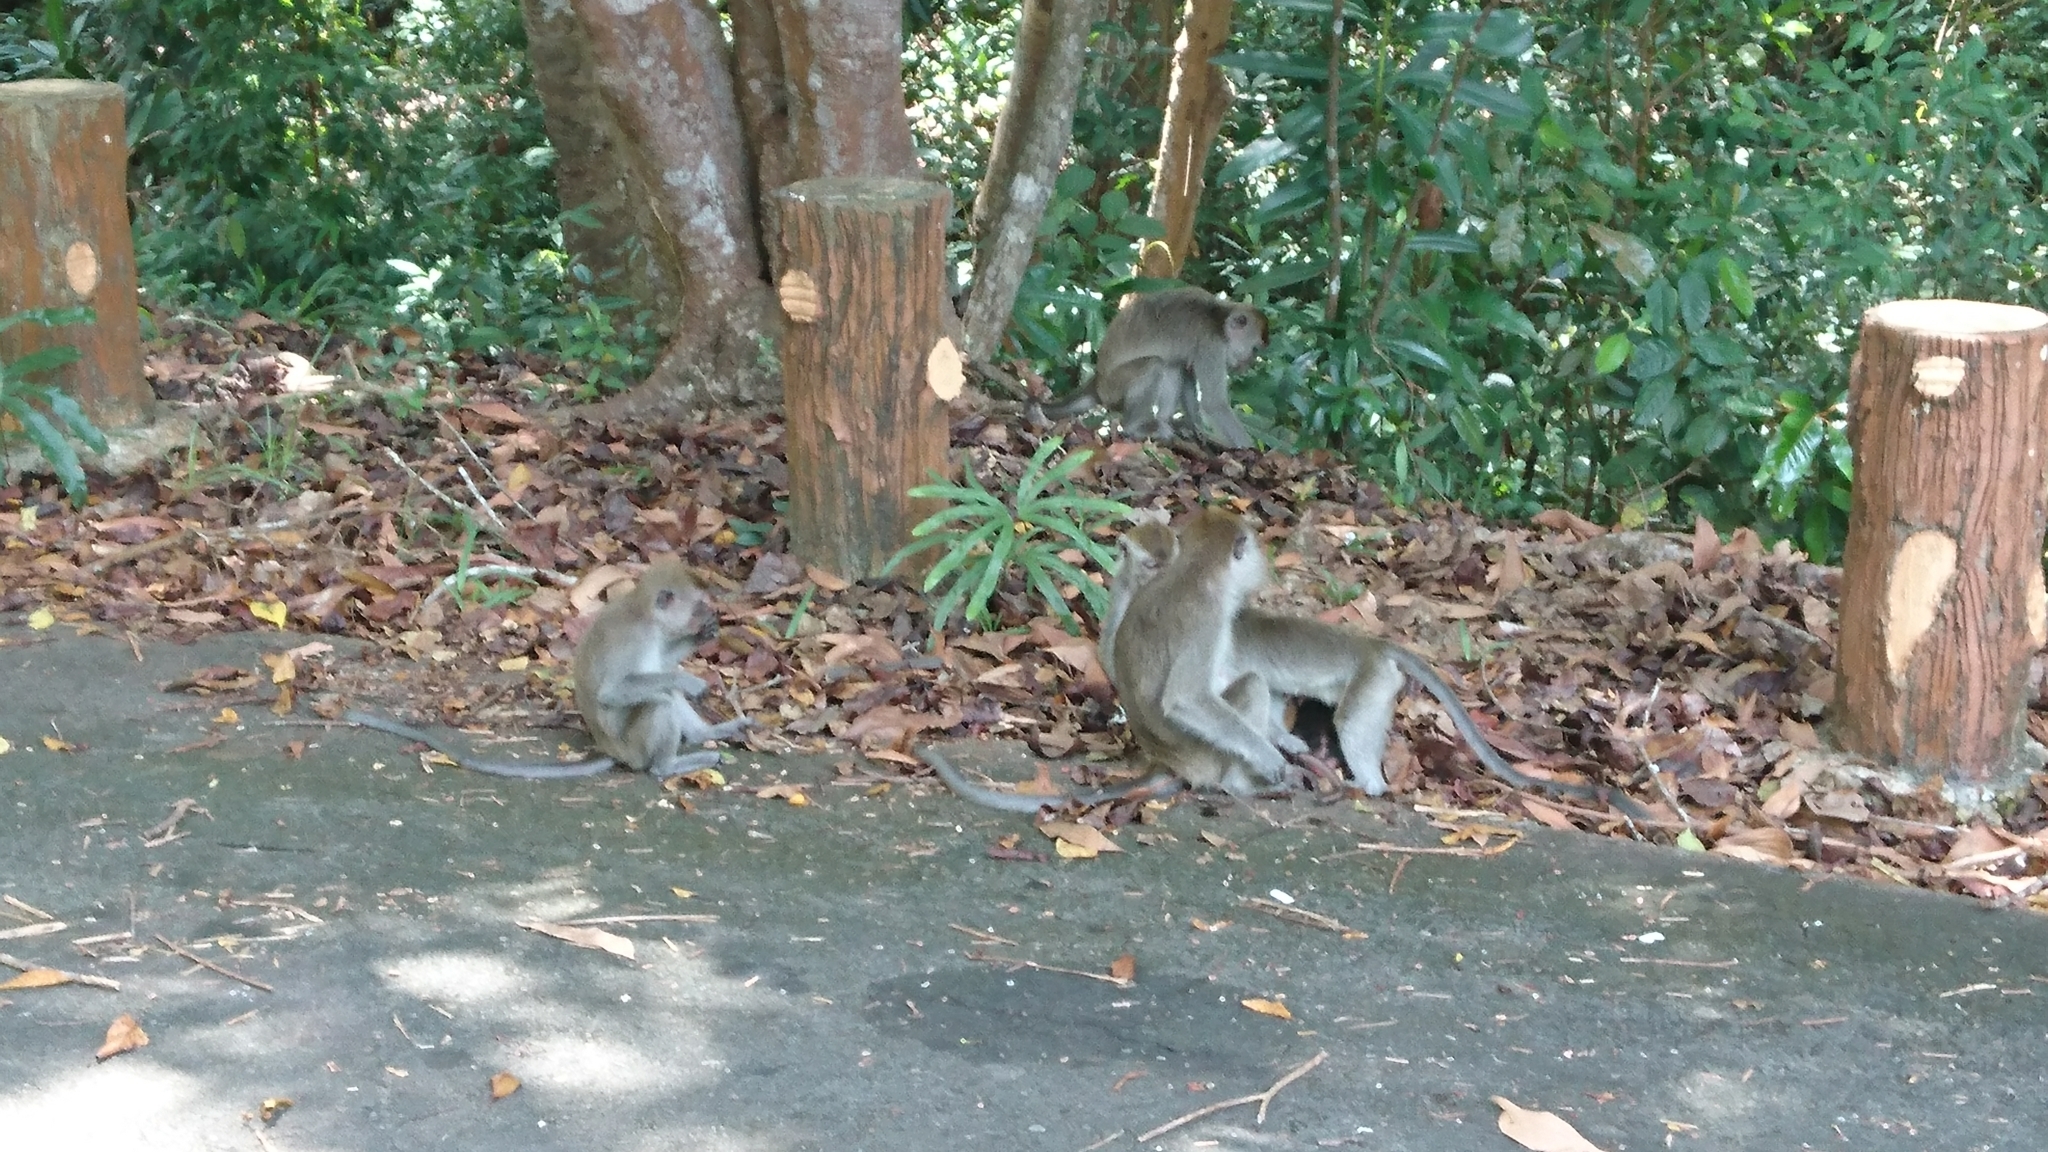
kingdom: Animalia
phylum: Chordata
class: Mammalia
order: Primates
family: Cercopithecidae
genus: Macaca
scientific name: Macaca fascicularis
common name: Crab-eating macaque
